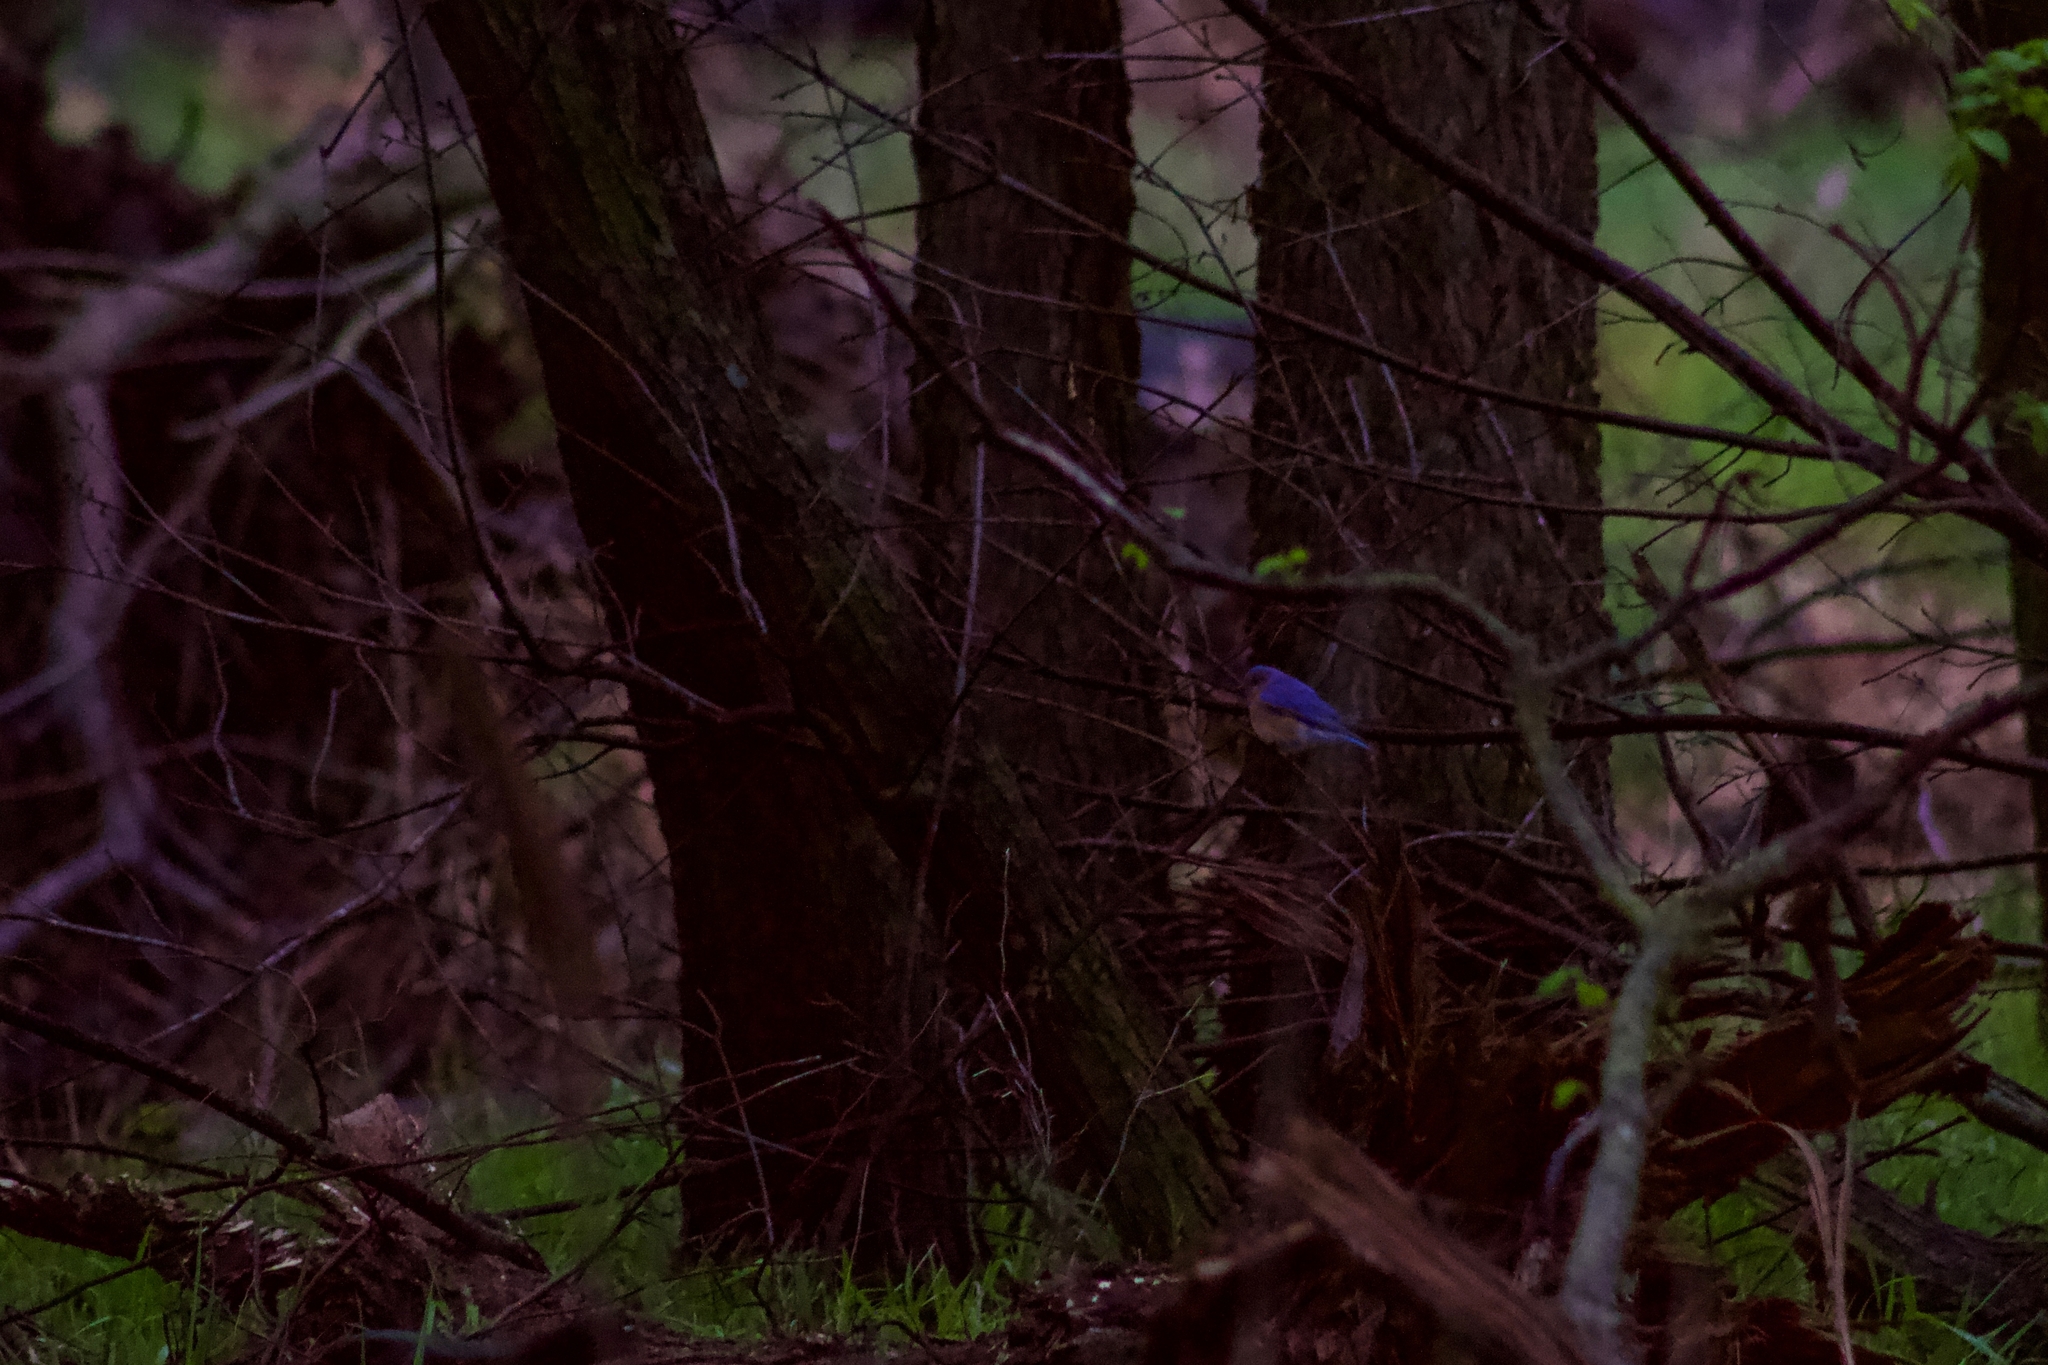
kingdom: Animalia
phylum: Chordata
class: Aves
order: Passeriformes
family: Turdidae
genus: Sialia
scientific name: Sialia sialis
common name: Eastern bluebird
